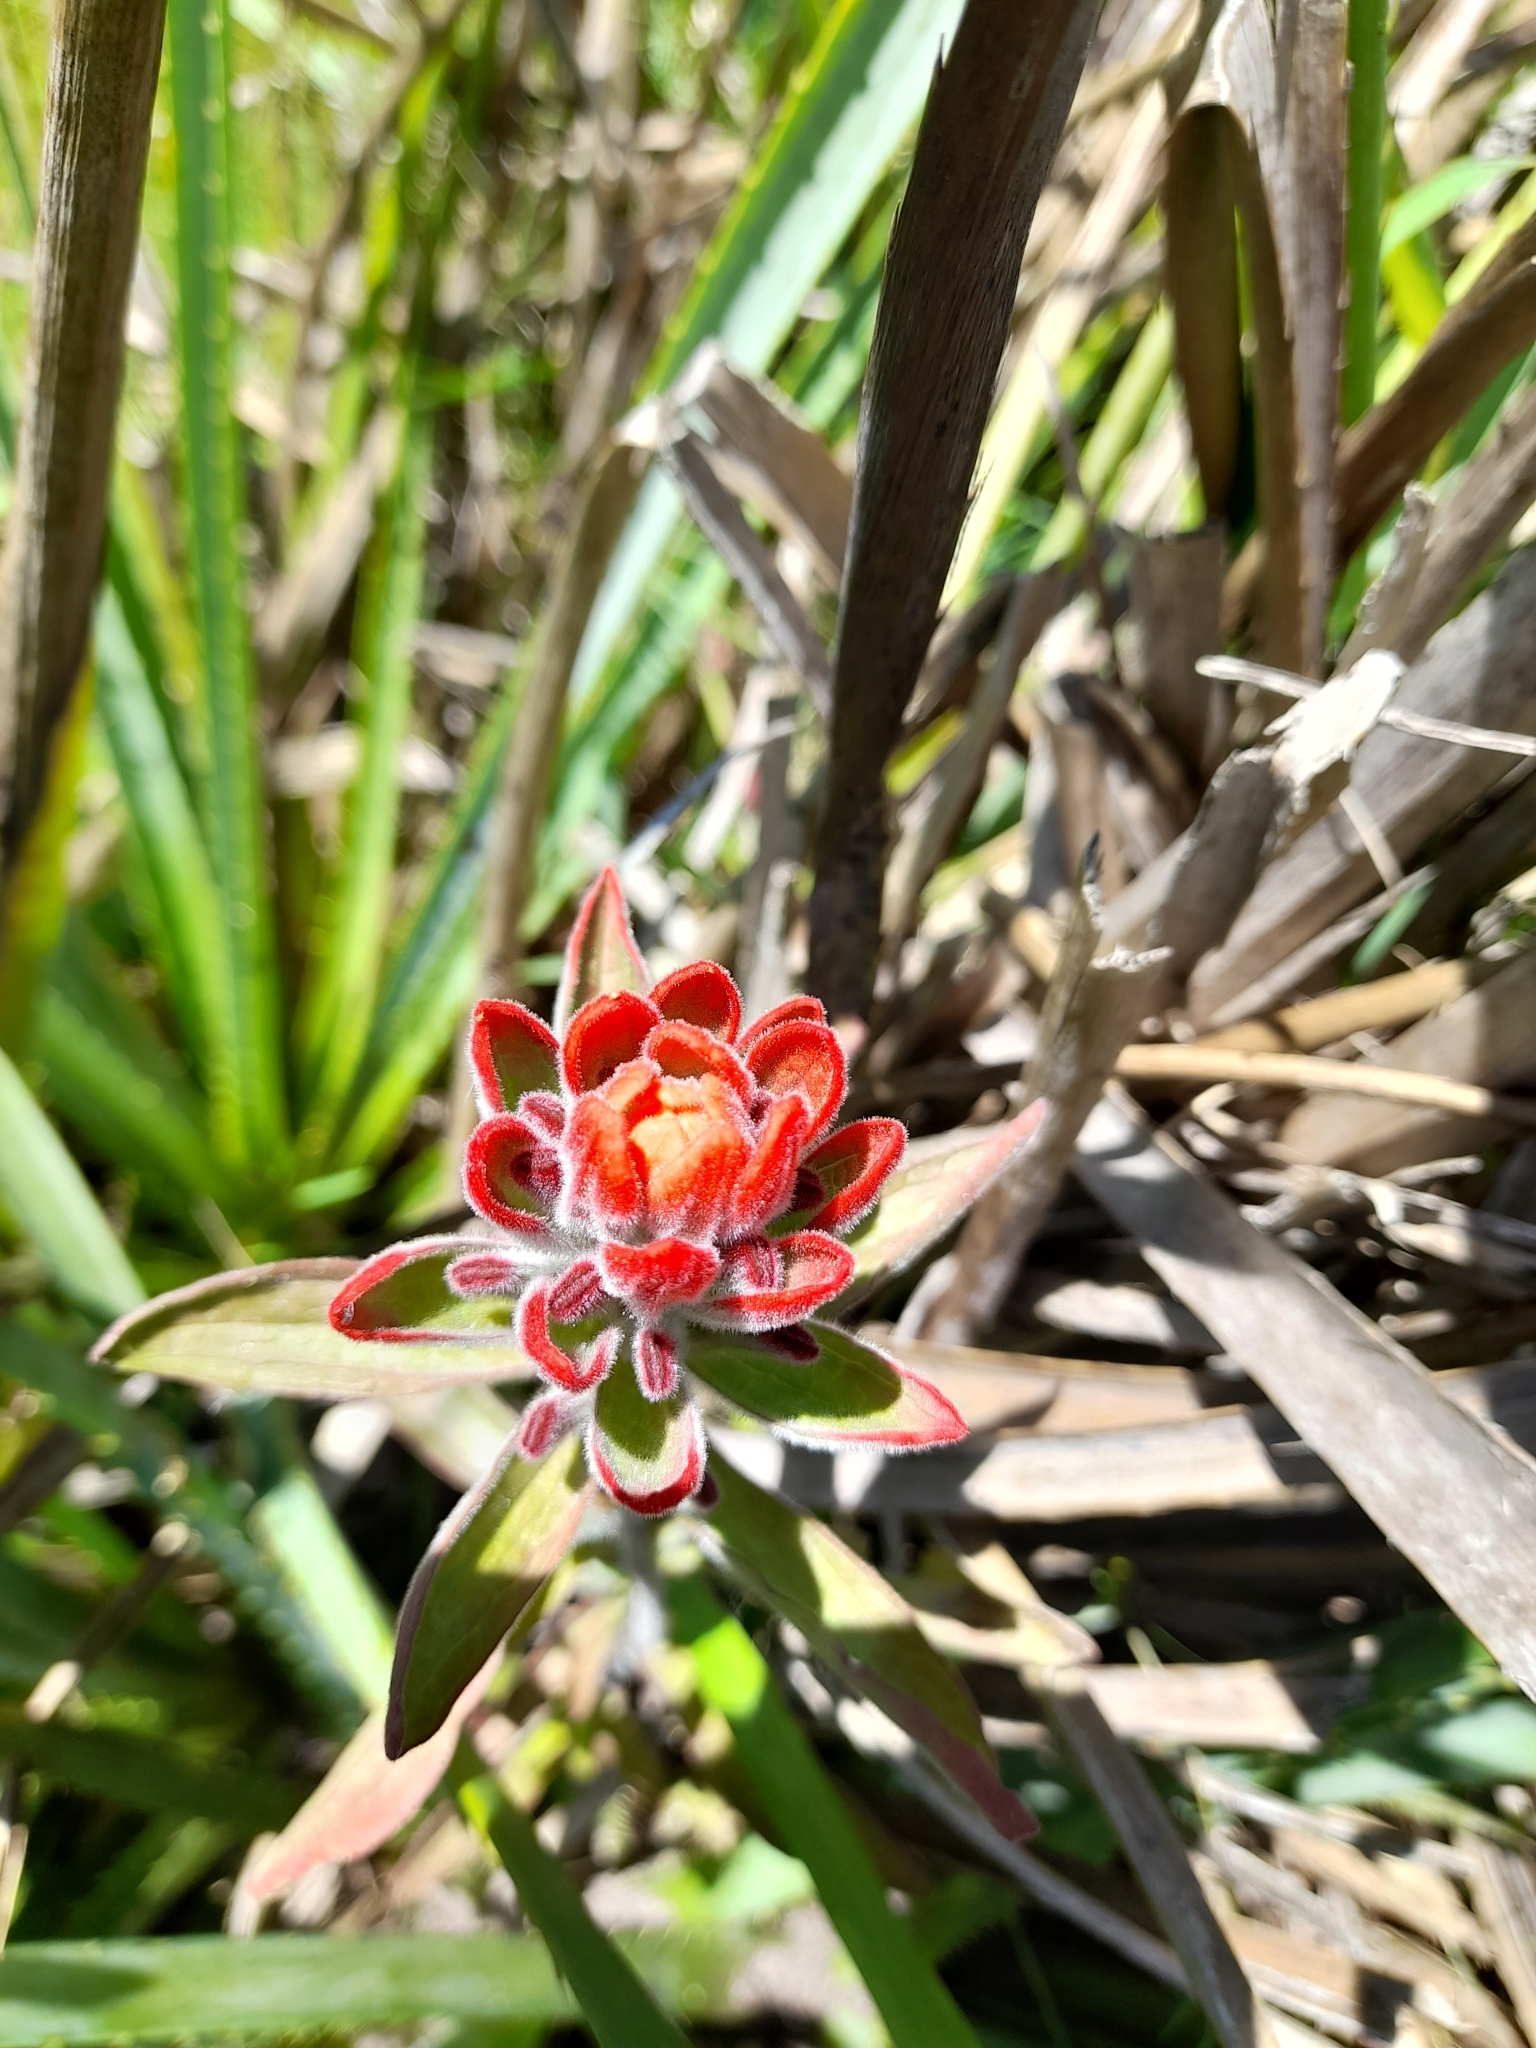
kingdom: Plantae
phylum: Tracheophyta
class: Magnoliopsida
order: Lamiales
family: Orobanchaceae
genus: Castilleja
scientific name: Castilleja arvensis
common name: Indian paintbrush
